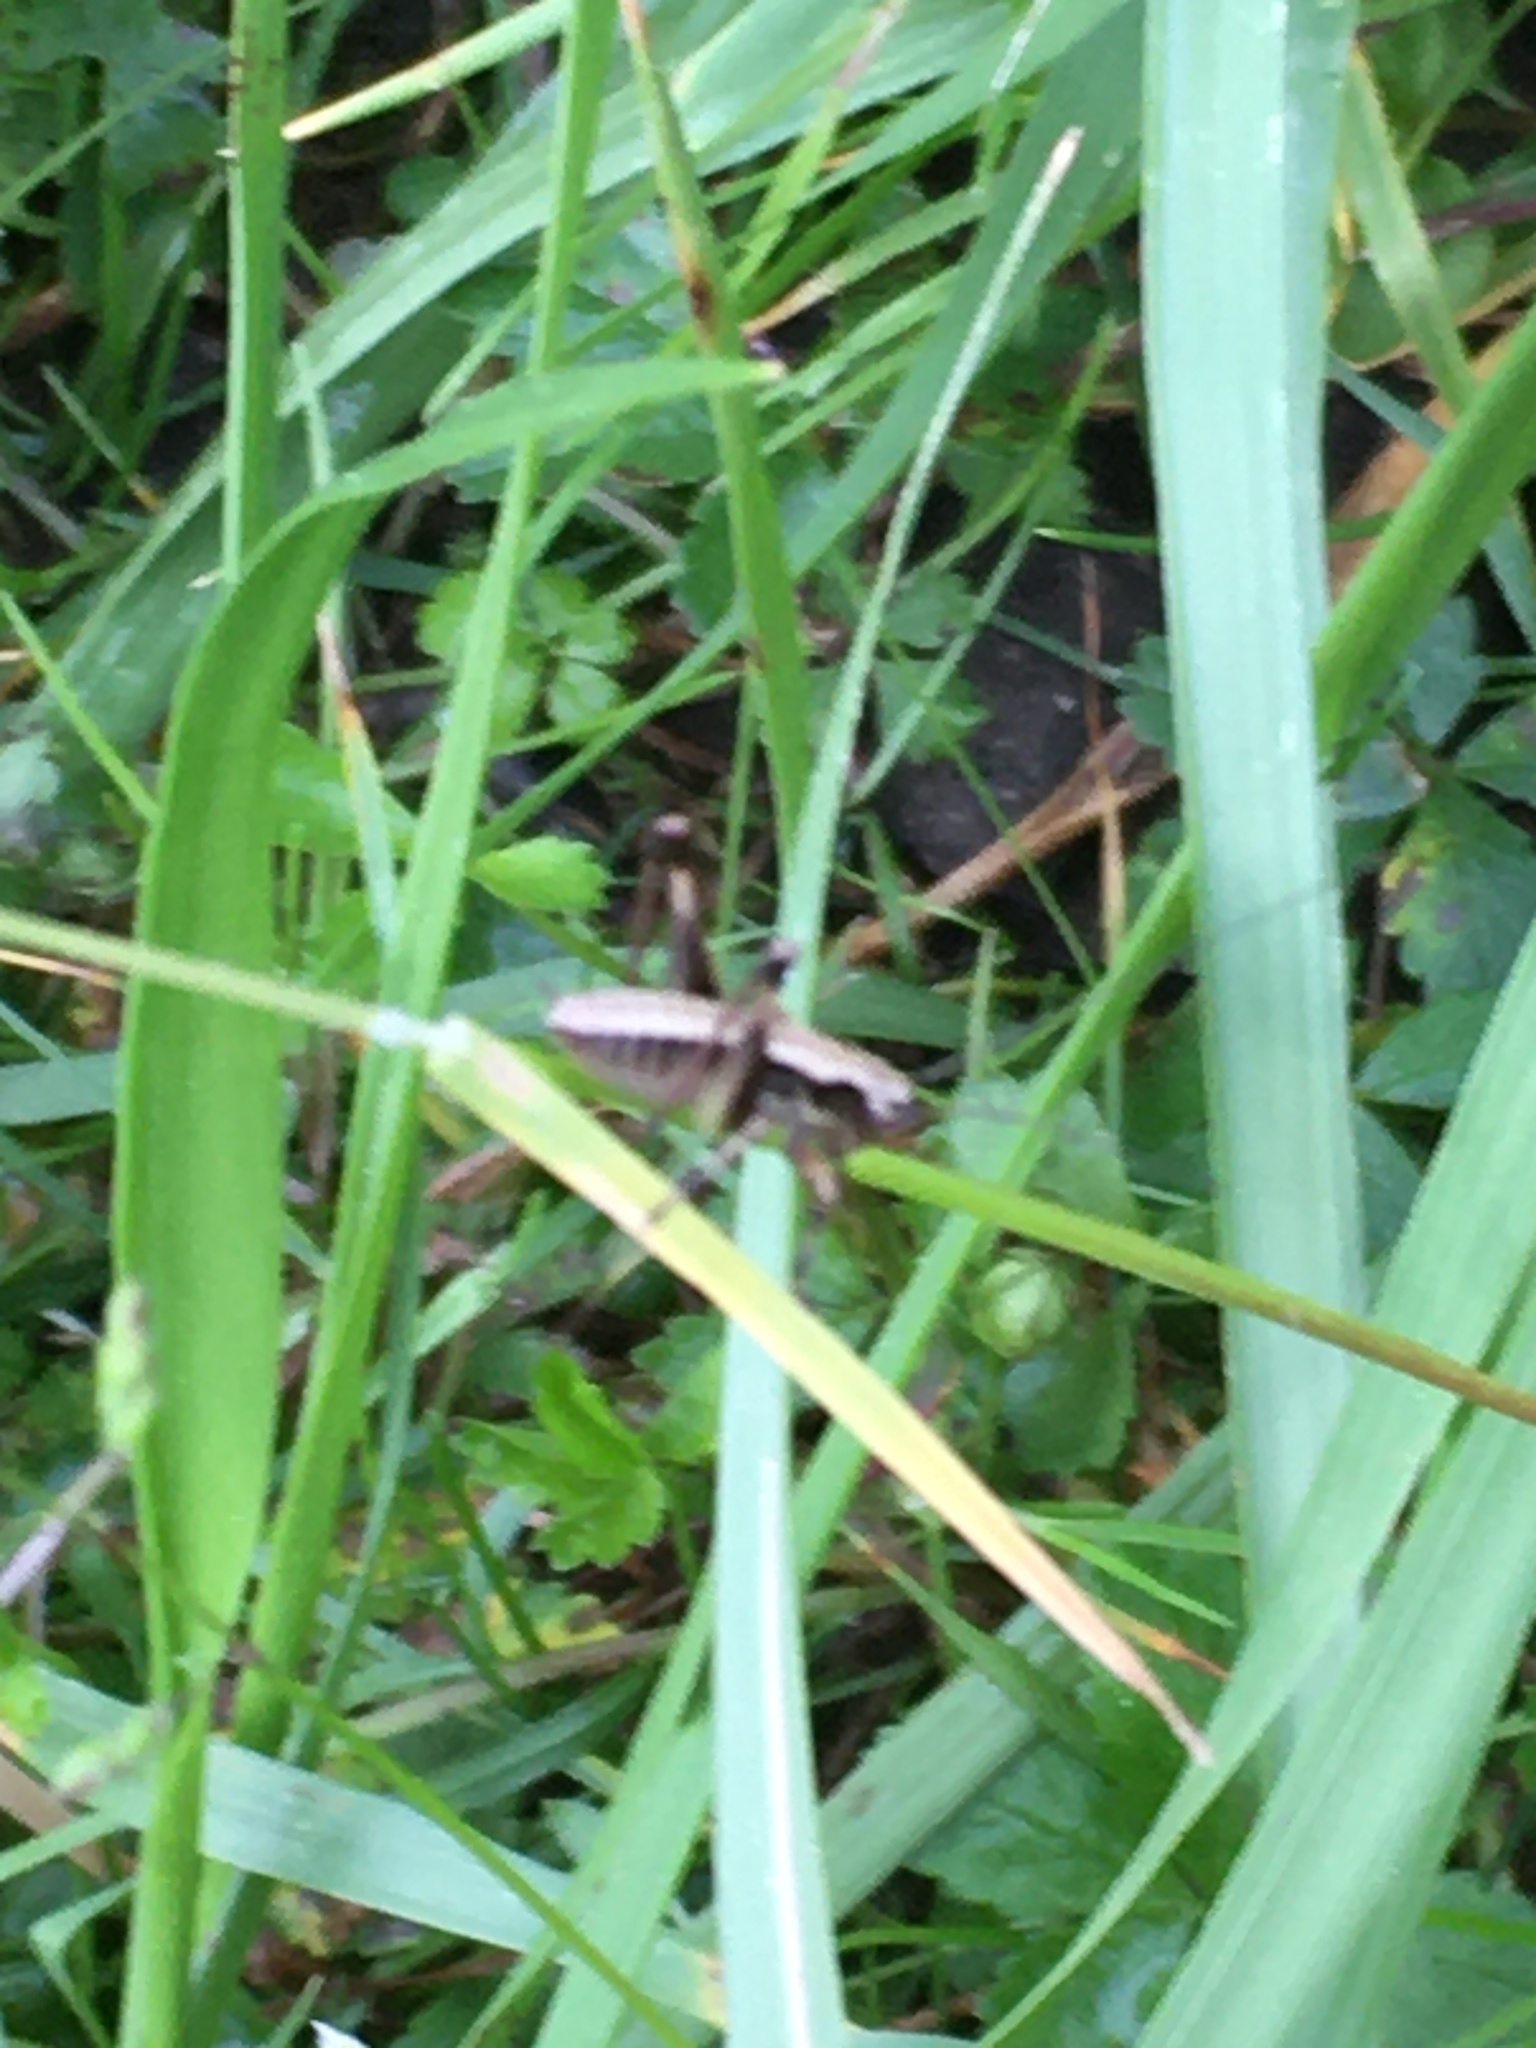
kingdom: Animalia
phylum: Arthropoda
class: Insecta
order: Orthoptera
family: Tettigoniidae
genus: Pholidoptera
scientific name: Pholidoptera griseoaptera
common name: Dark bush-cricket
